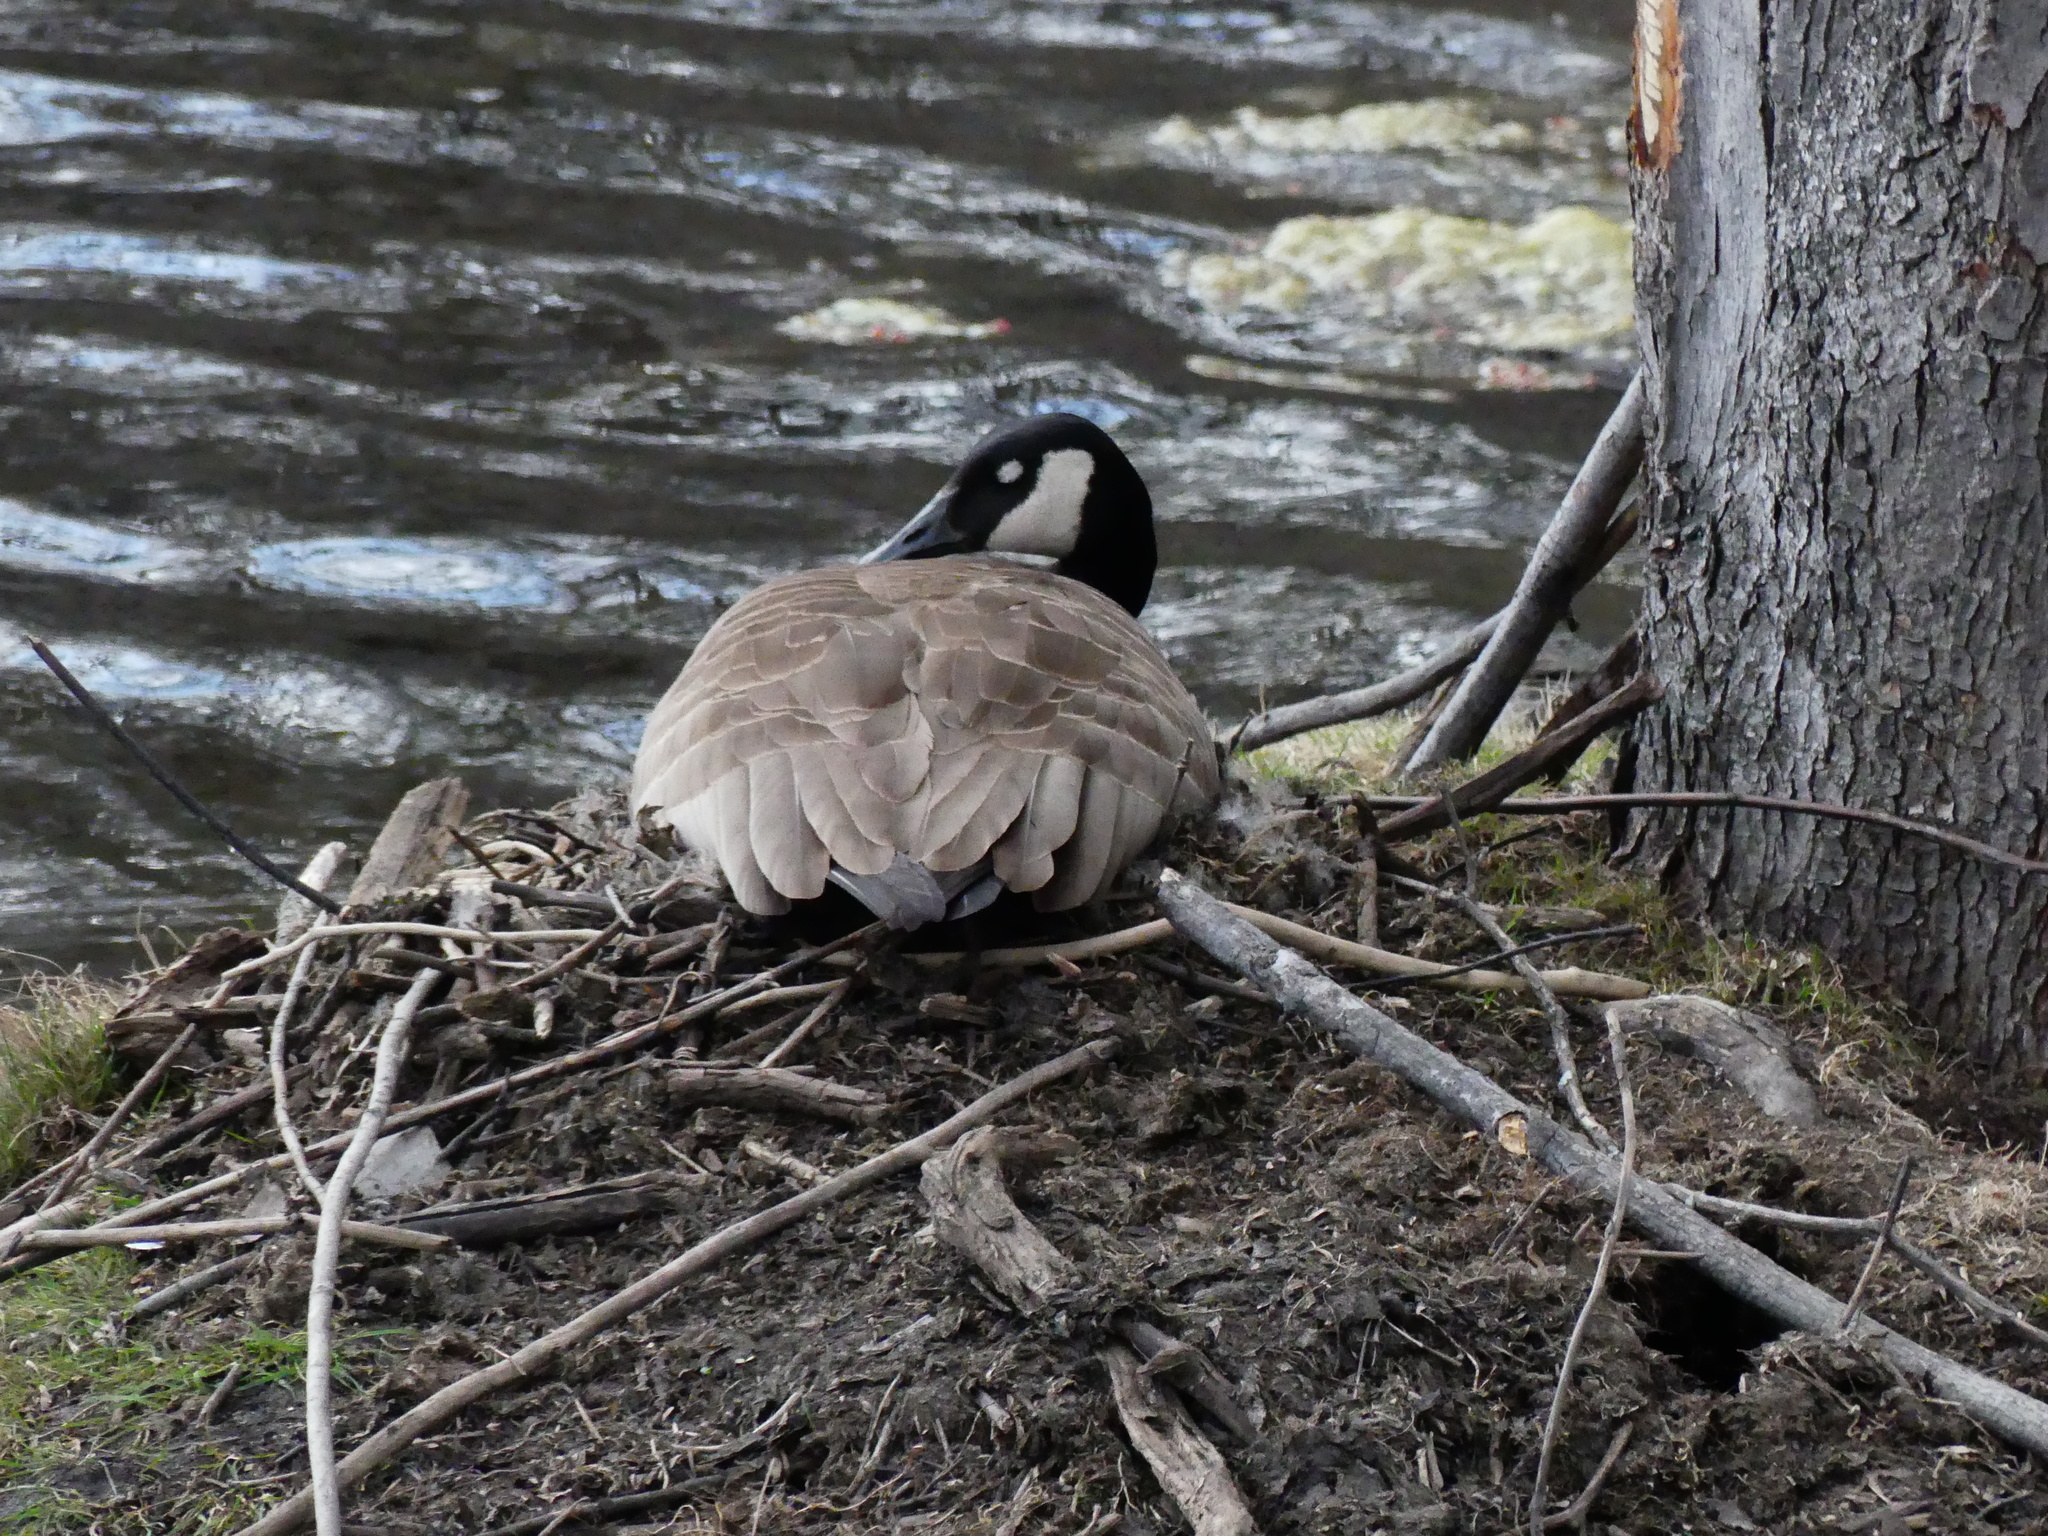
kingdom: Animalia
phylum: Chordata
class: Aves
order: Anseriformes
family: Anatidae
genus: Branta
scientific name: Branta canadensis
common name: Canada goose
